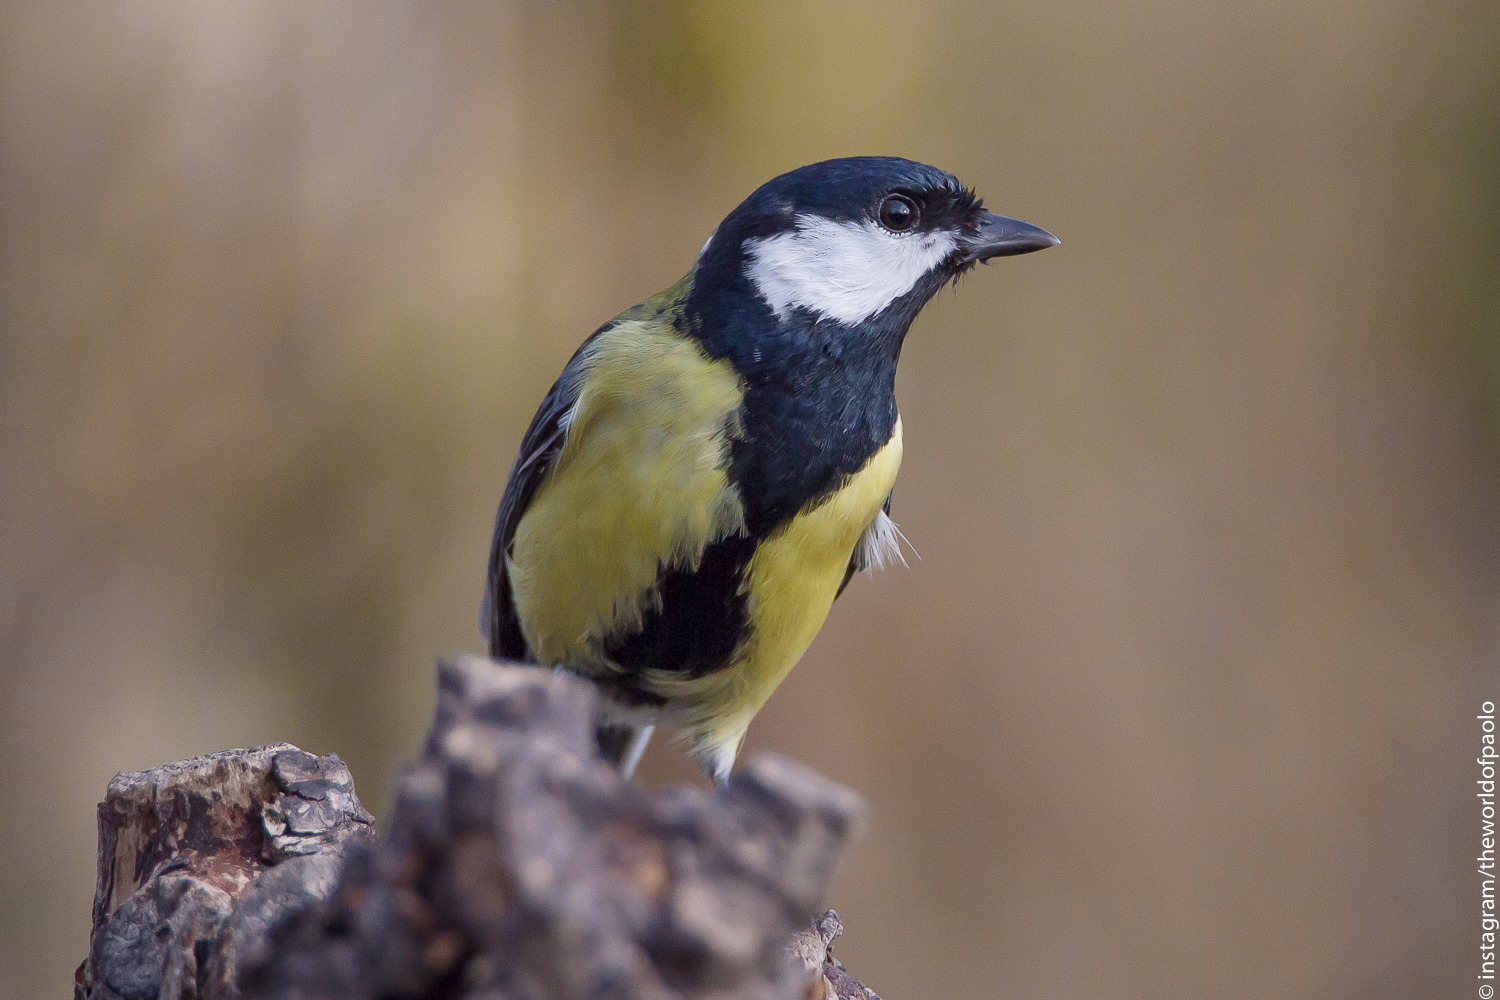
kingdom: Animalia
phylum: Chordata
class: Aves
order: Passeriformes
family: Paridae
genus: Parus
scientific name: Parus major
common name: Great tit
